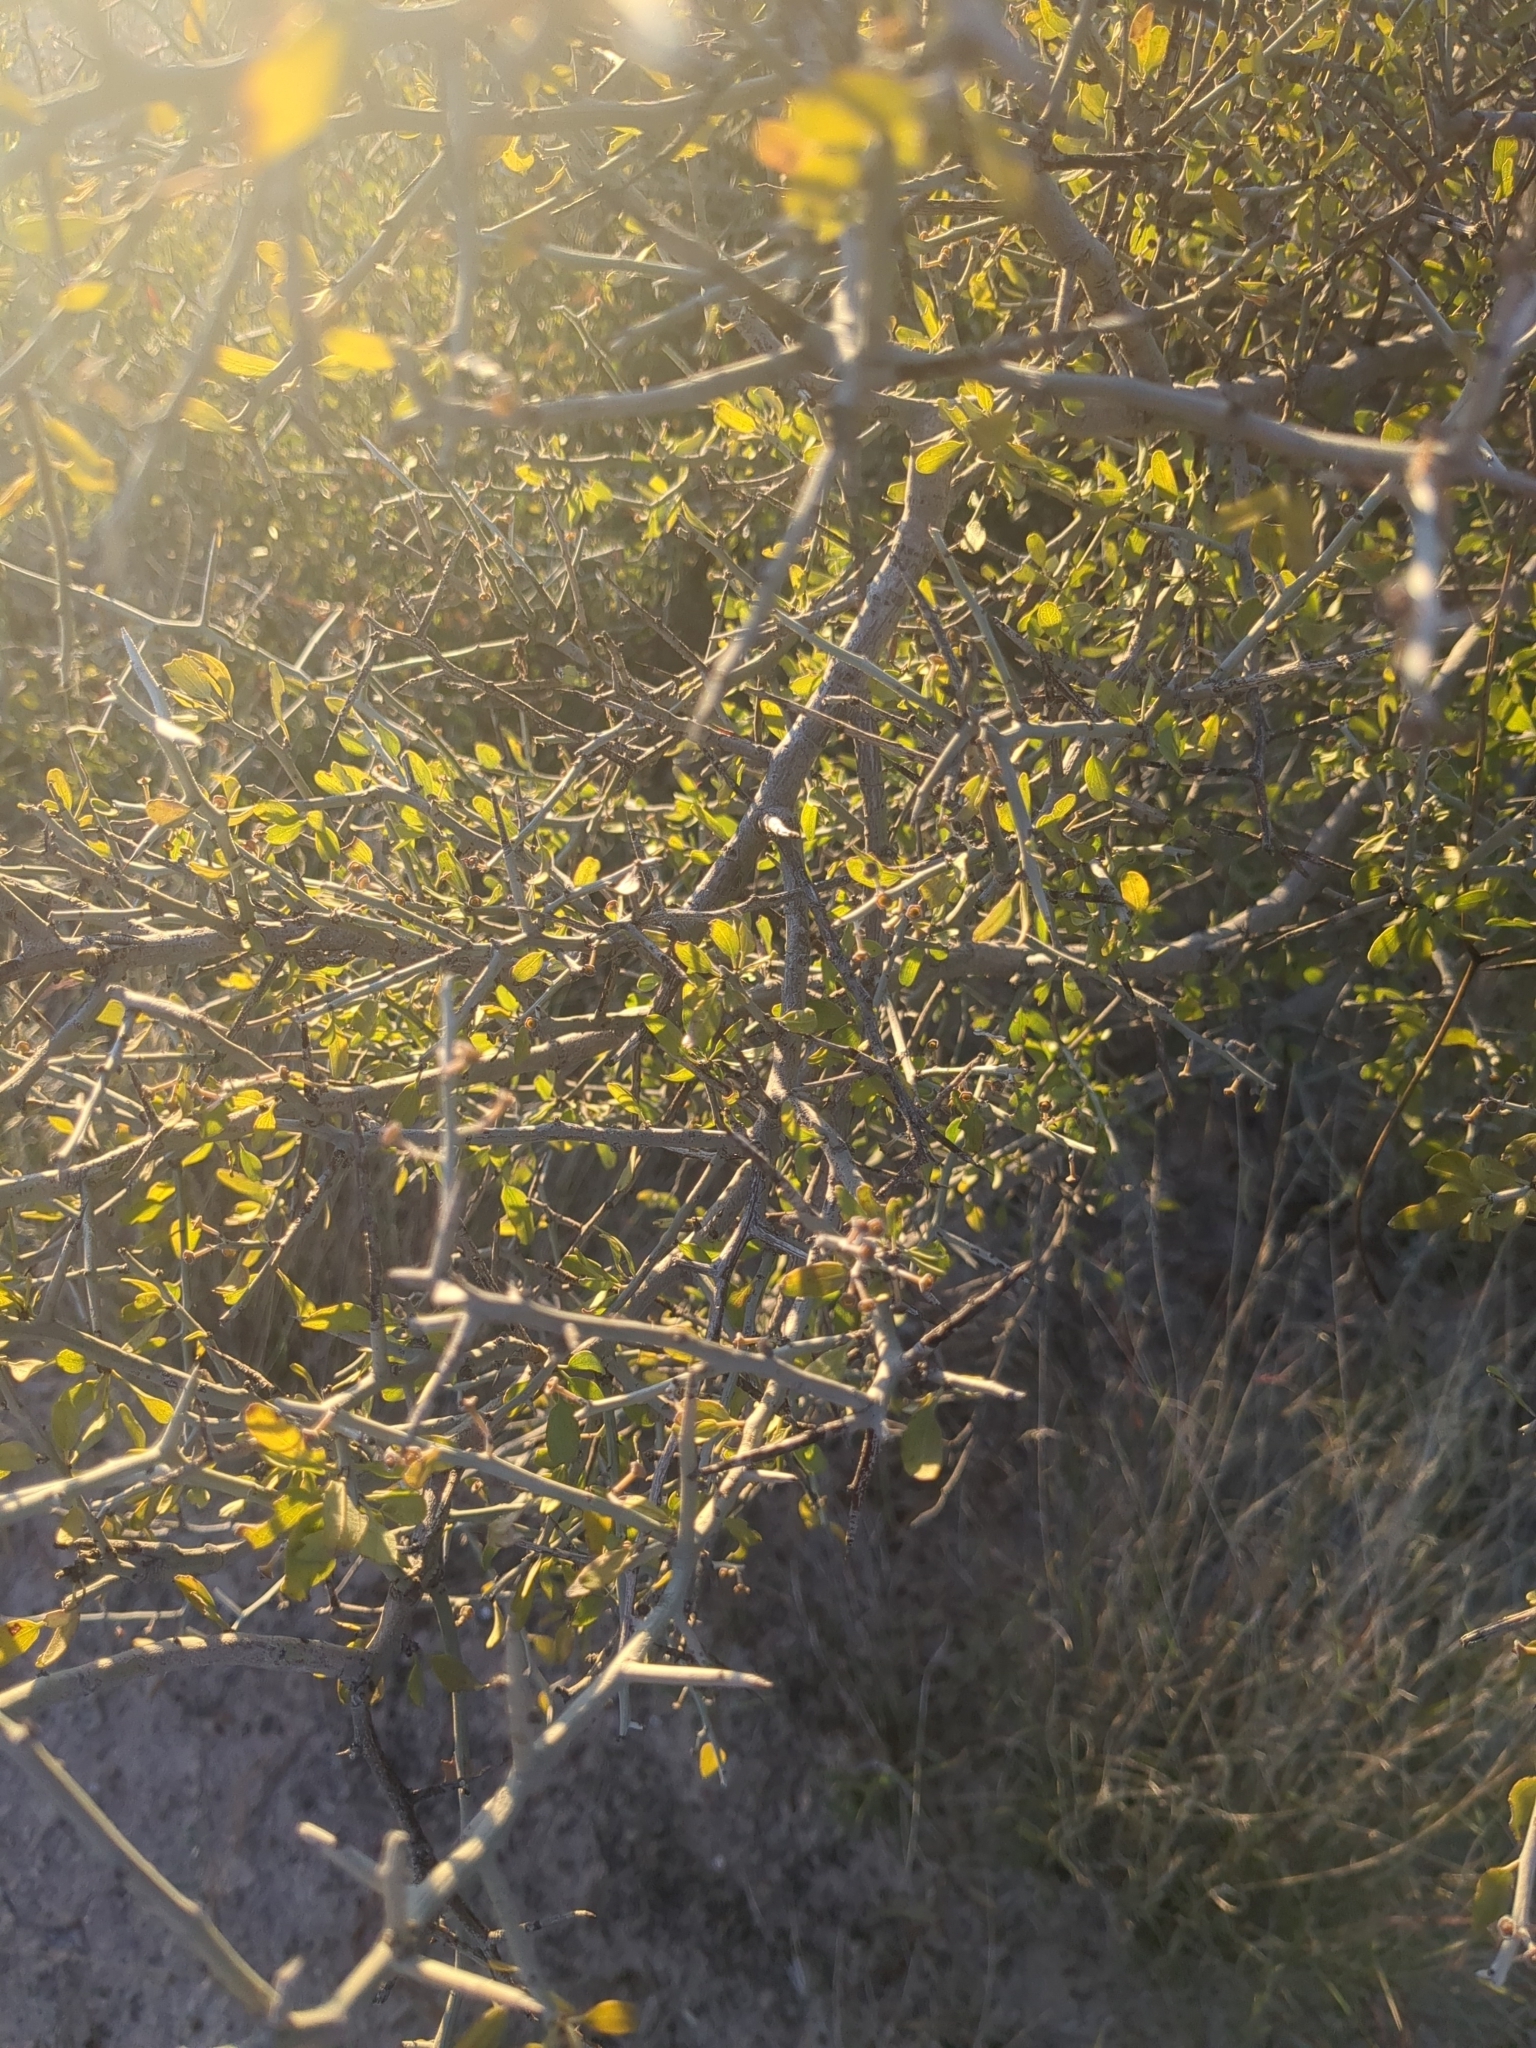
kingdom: Plantae
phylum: Tracheophyta
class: Magnoliopsida
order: Rosales
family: Rhamnaceae
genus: Sarcomphalus
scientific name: Sarcomphalus obtusifolius
